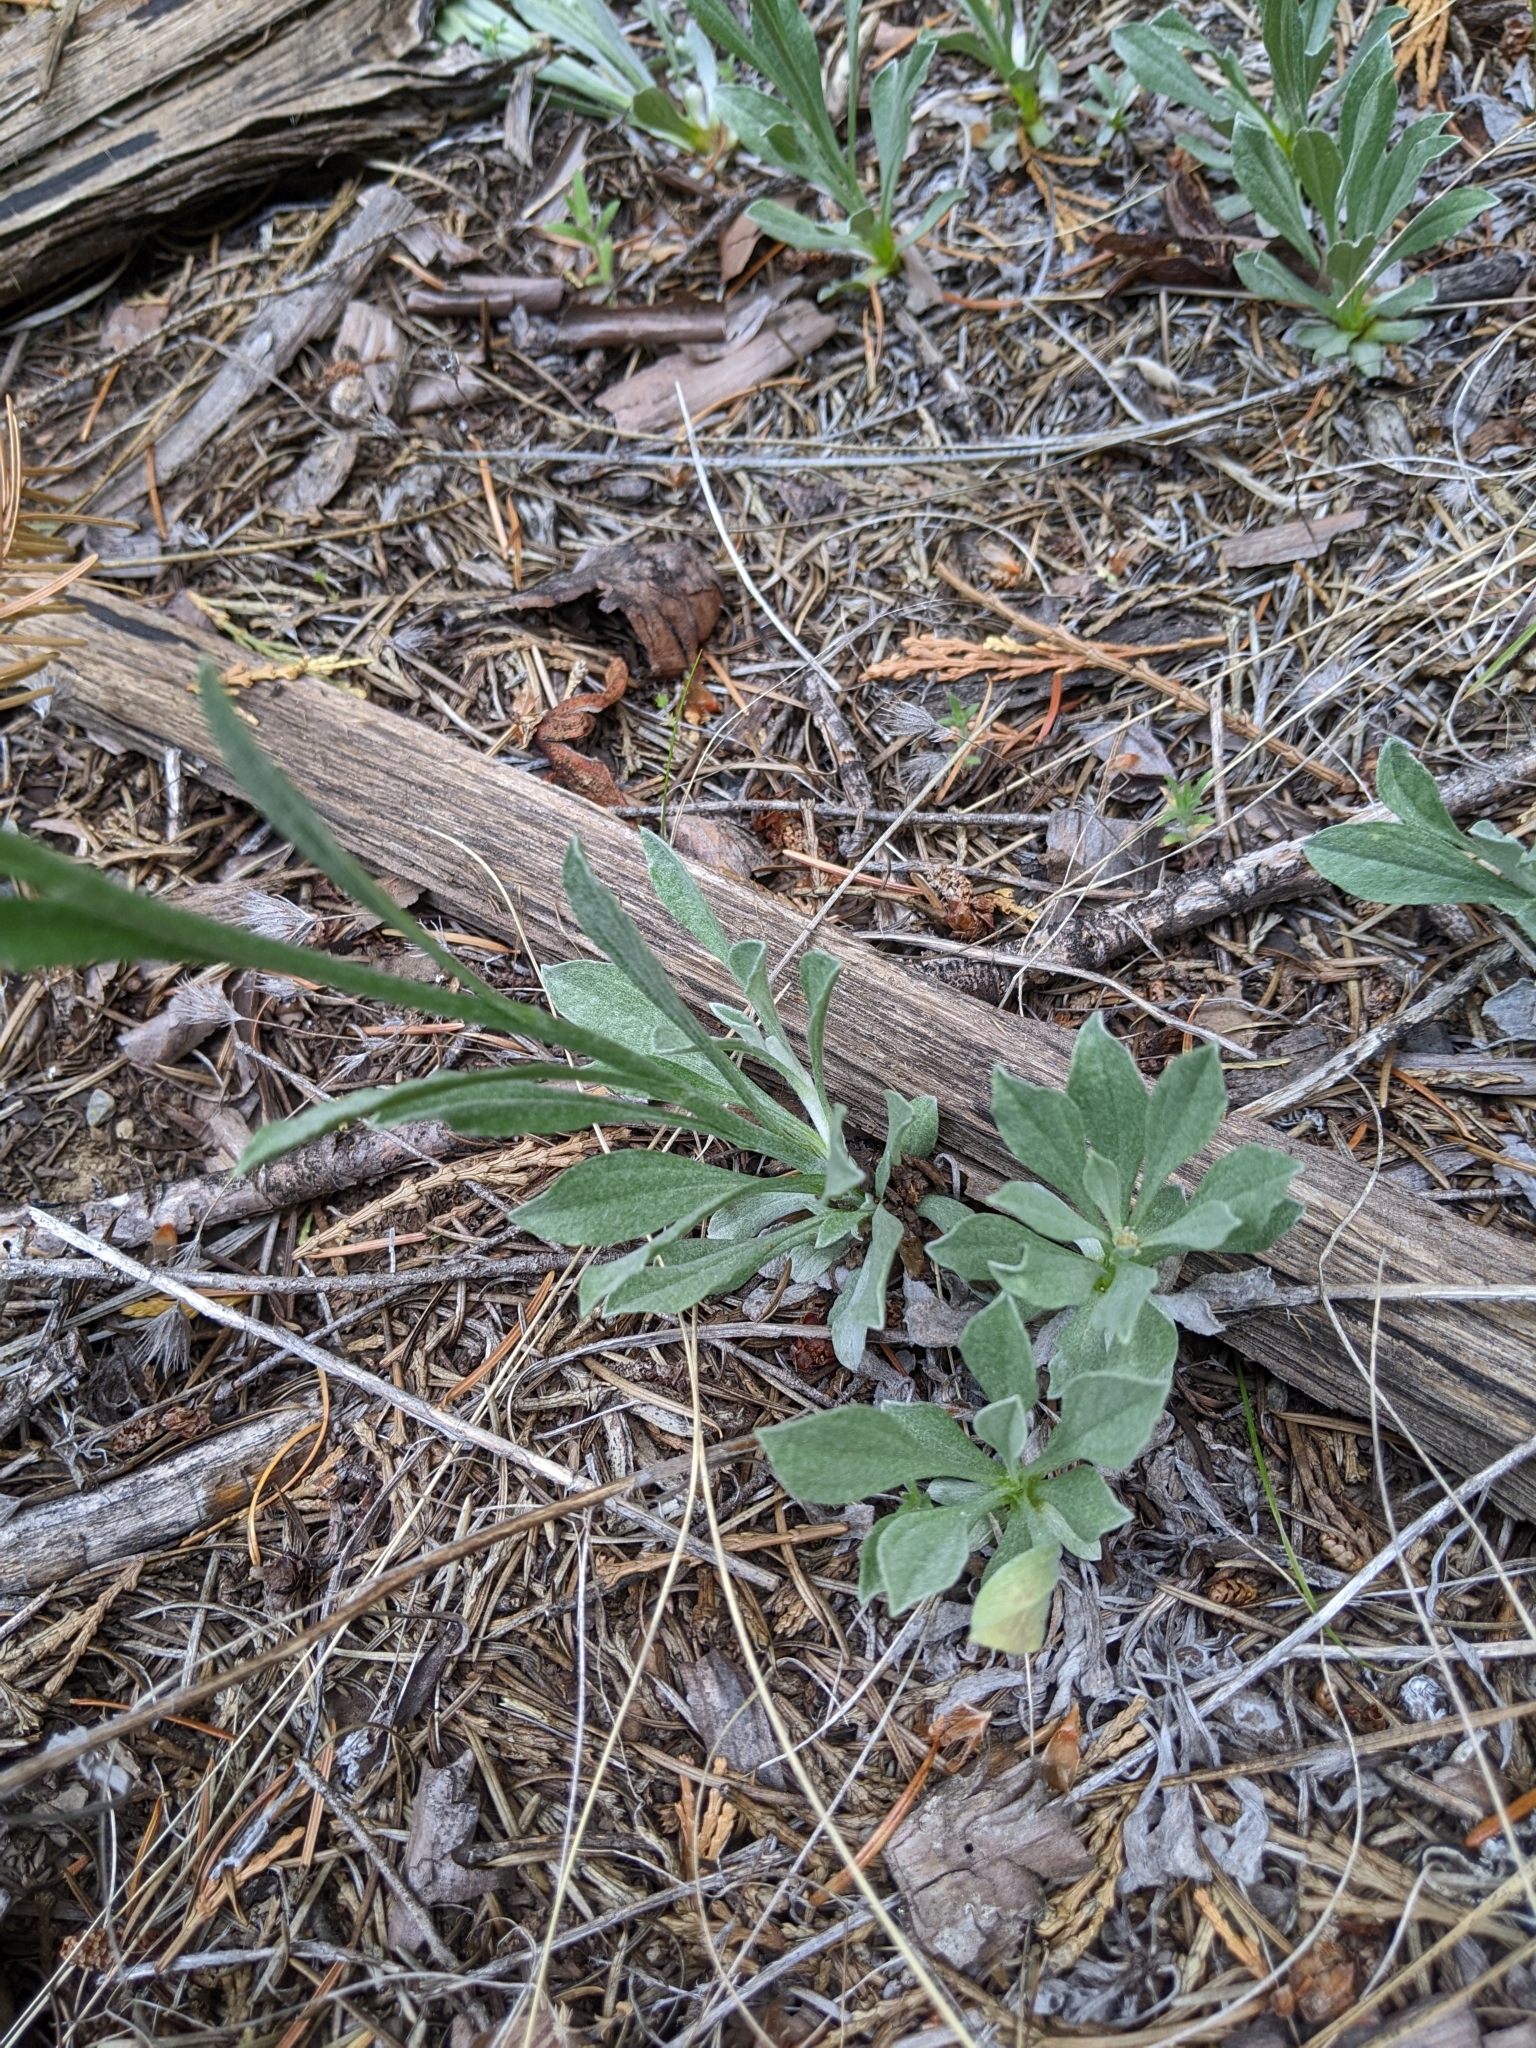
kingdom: Plantae
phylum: Tracheophyta
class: Magnoliopsida
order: Asterales
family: Asteraceae
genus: Antennaria
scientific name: Antennaria argentea
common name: Silver pussytoes
